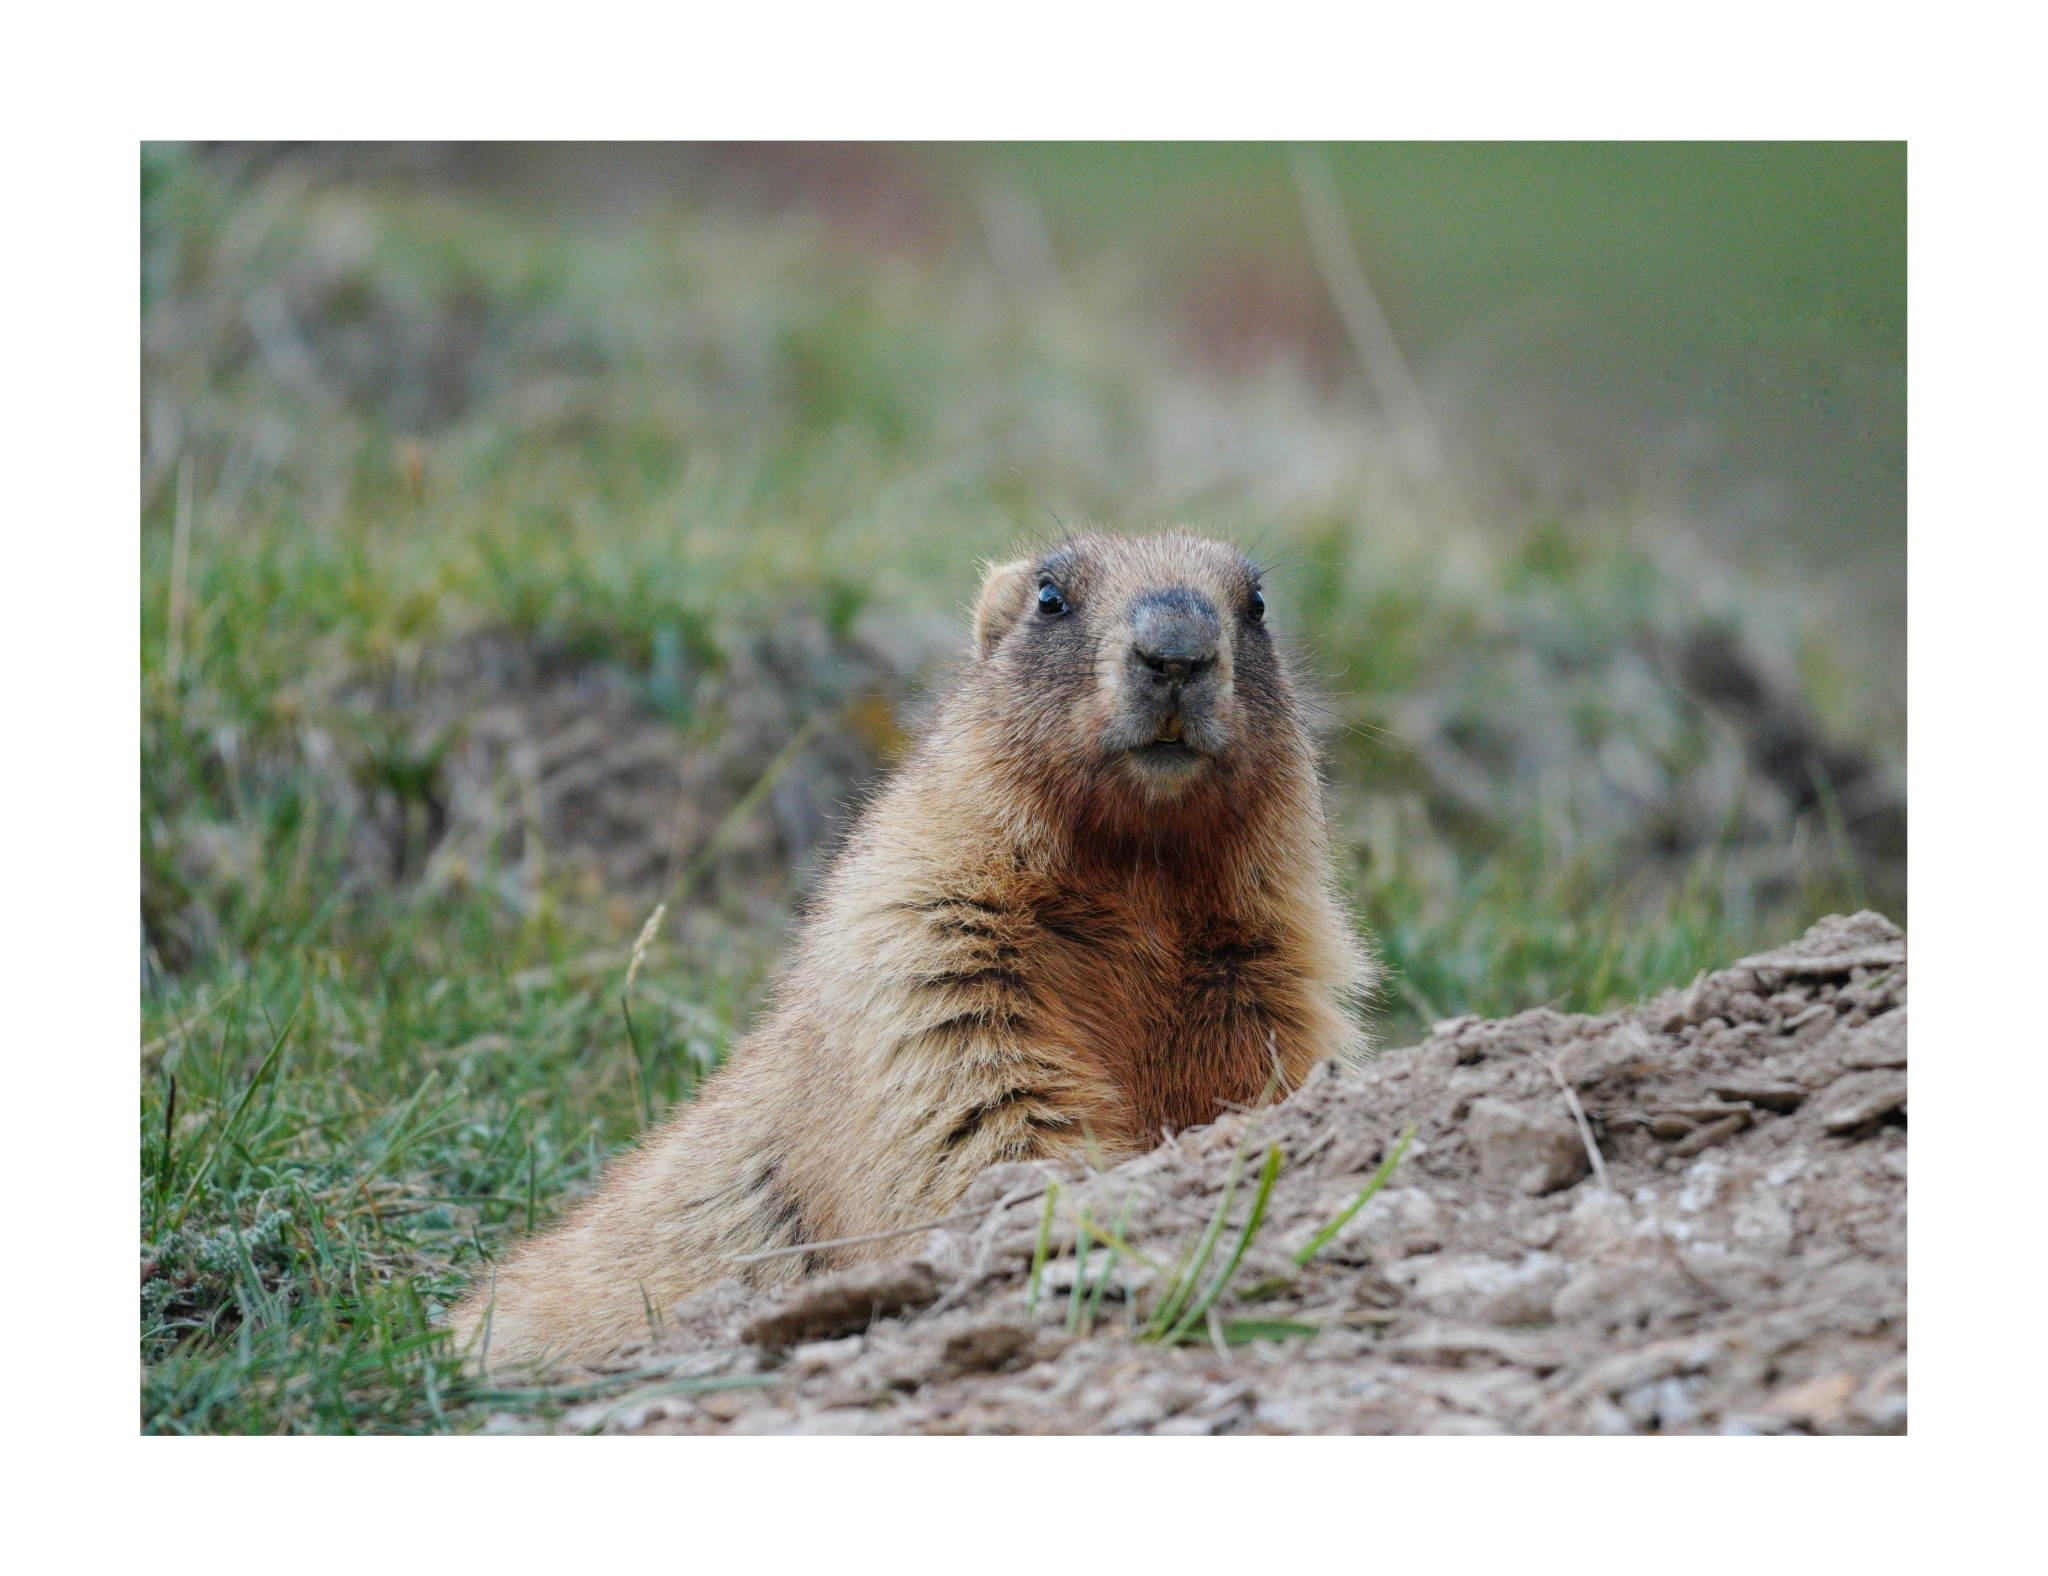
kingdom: Animalia
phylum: Chordata
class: Mammalia
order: Rodentia
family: Sciuridae
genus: Marmota
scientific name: Marmota baibacina
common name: Gray marmot
